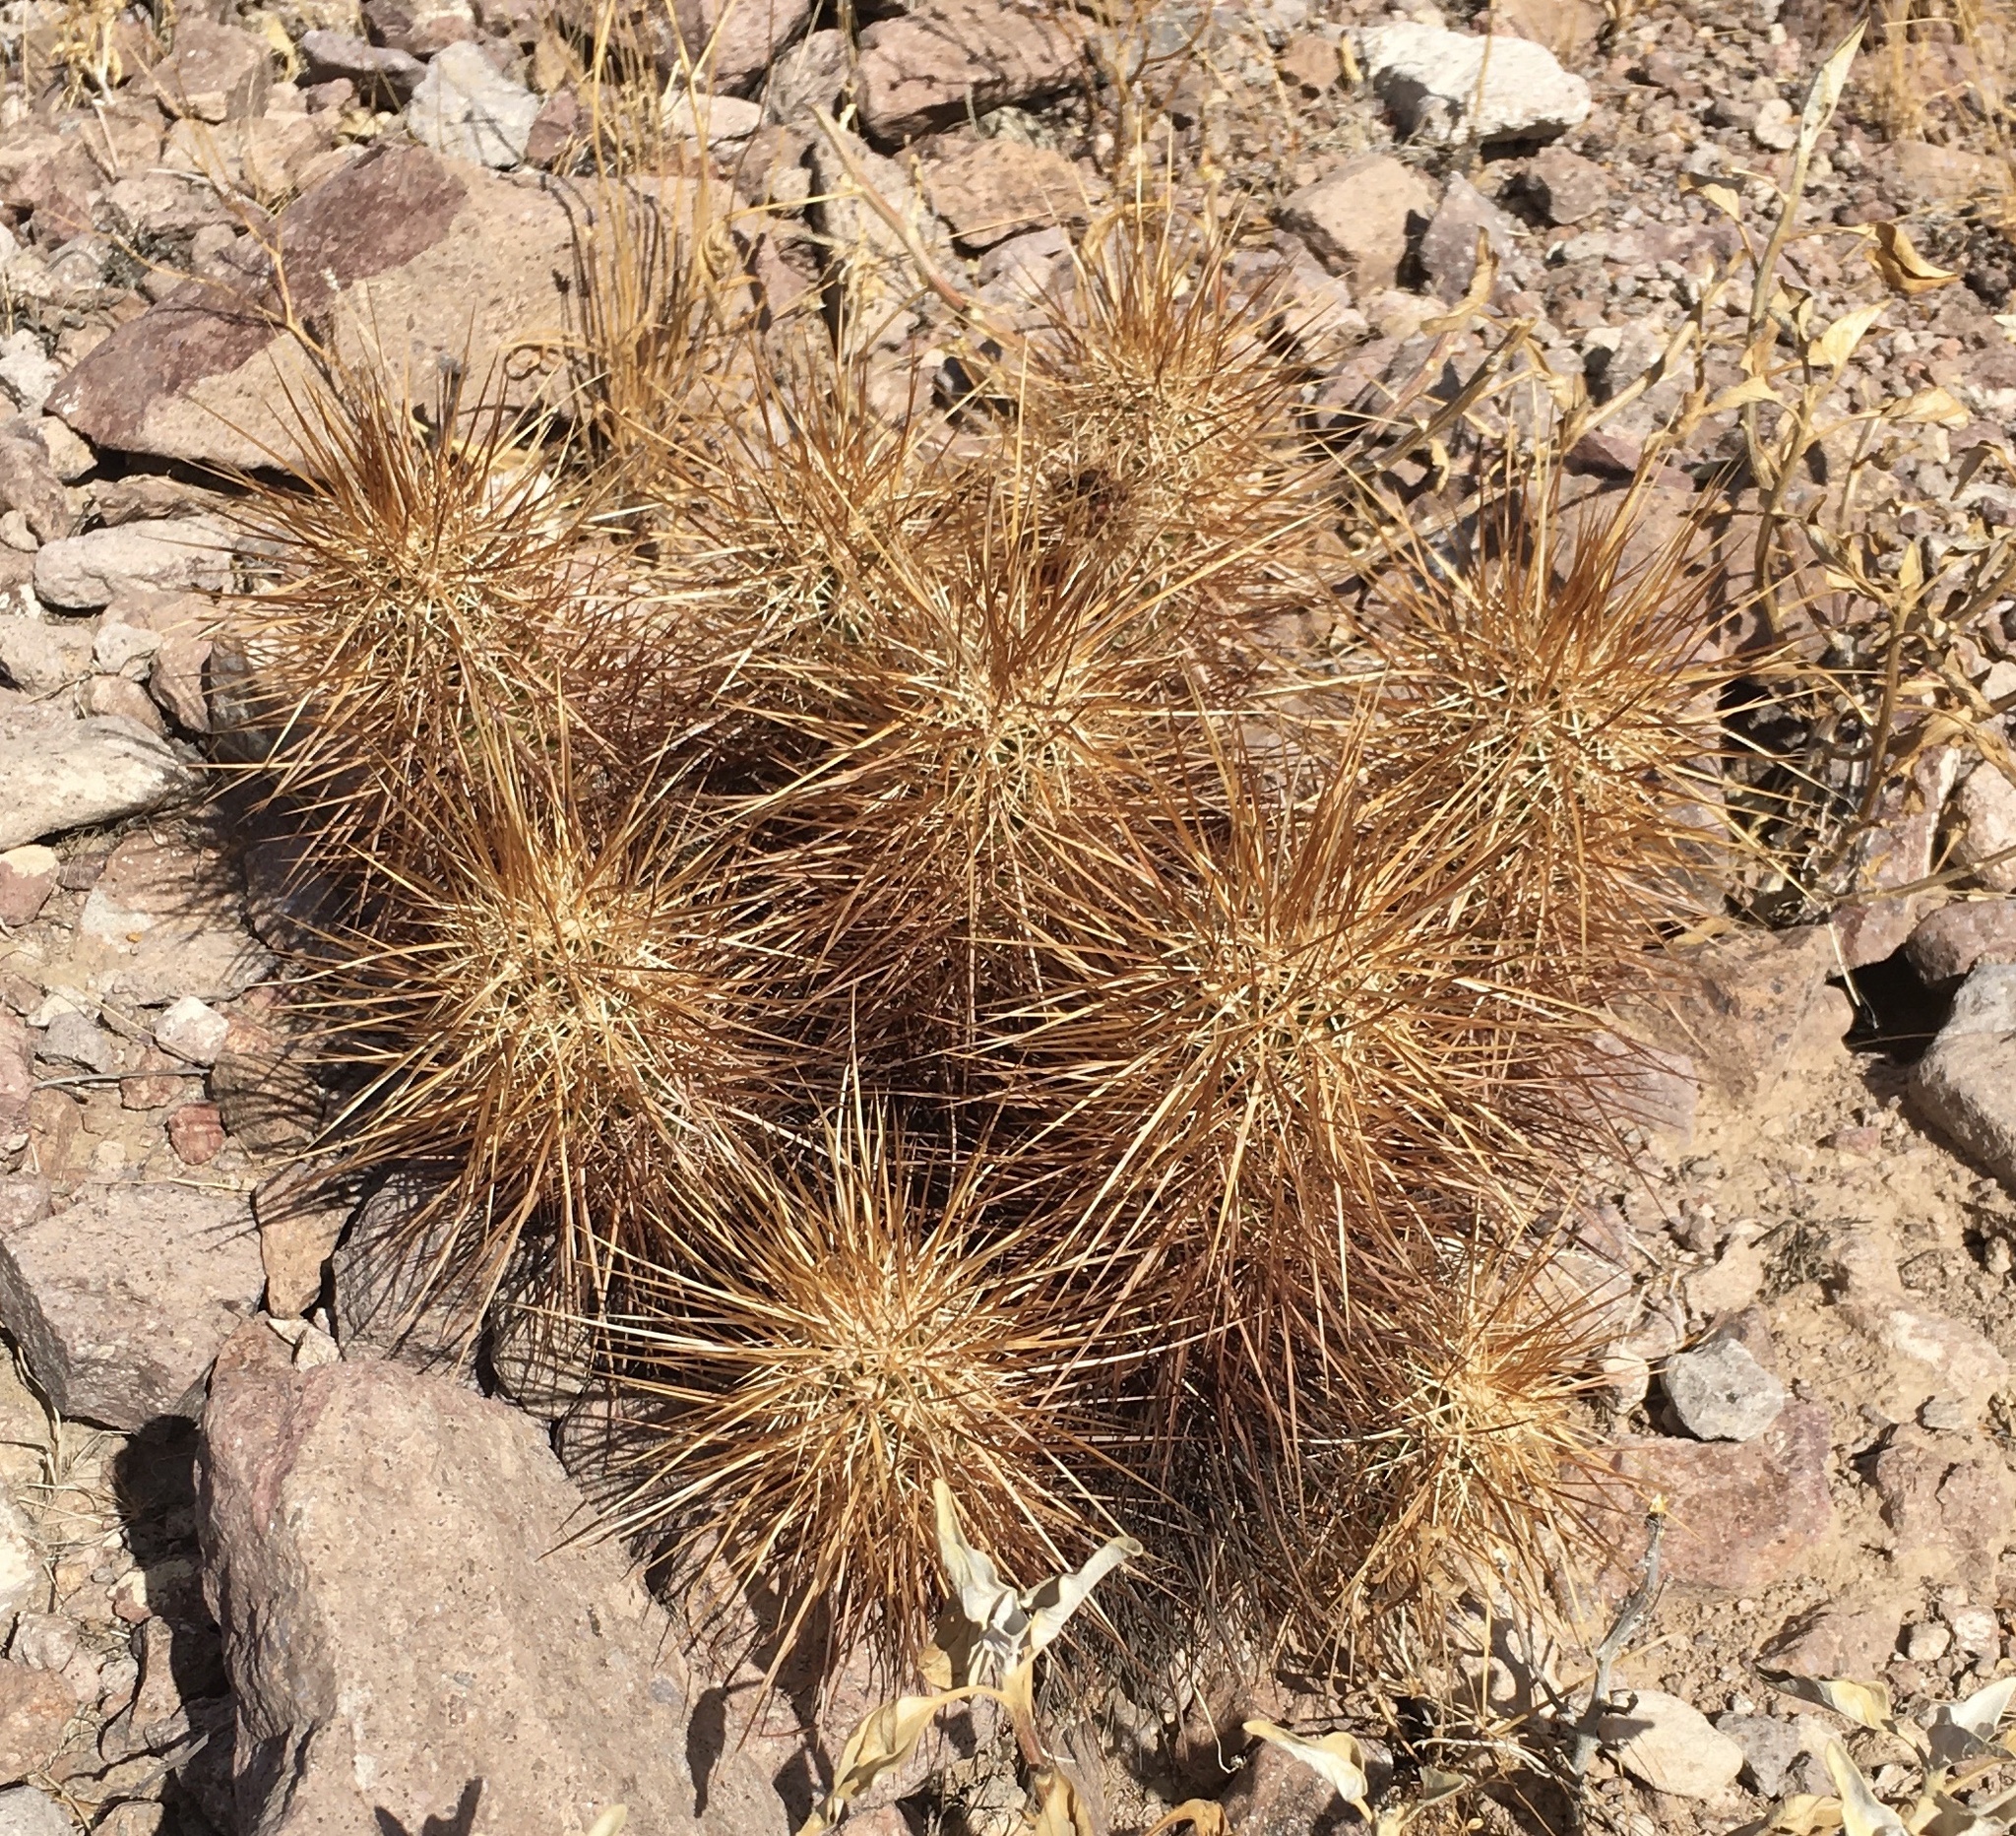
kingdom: Plantae
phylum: Tracheophyta
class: Magnoliopsida
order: Caryophyllales
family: Cactaceae
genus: Echinocereus
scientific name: Echinocereus engelmannii
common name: Engelmann's hedgehog cactus
